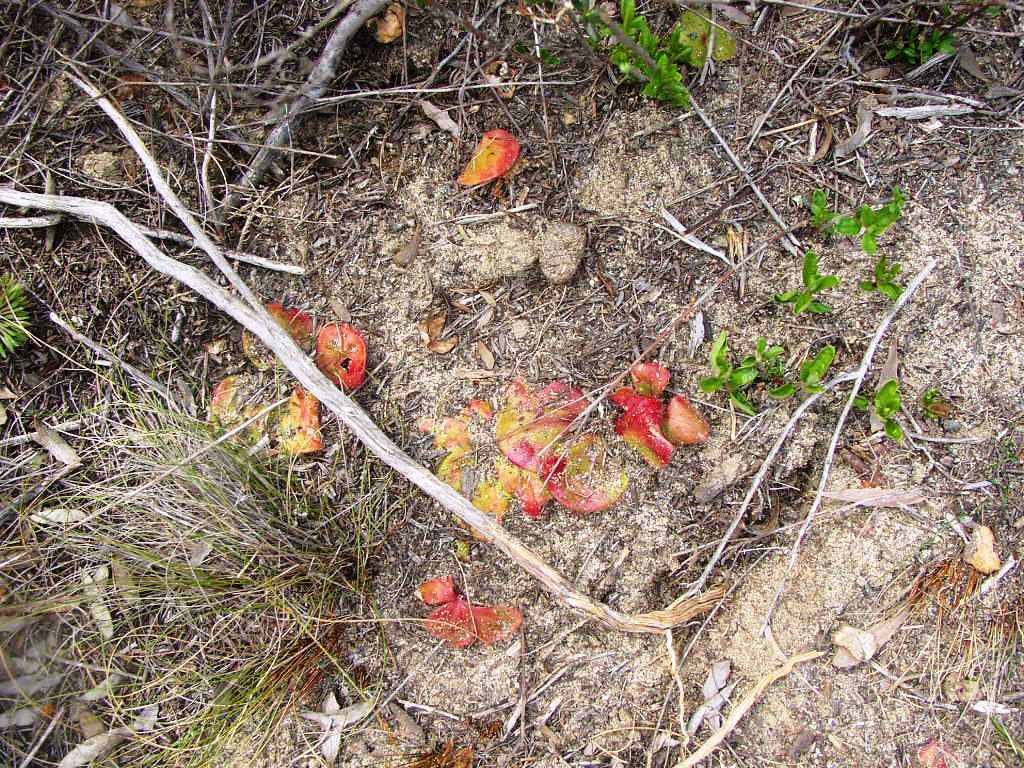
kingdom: Plantae
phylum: Tracheophyta
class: Magnoliopsida
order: Caryophyllales
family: Droseraceae
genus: Drosera
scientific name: Drosera erythrorhiza
